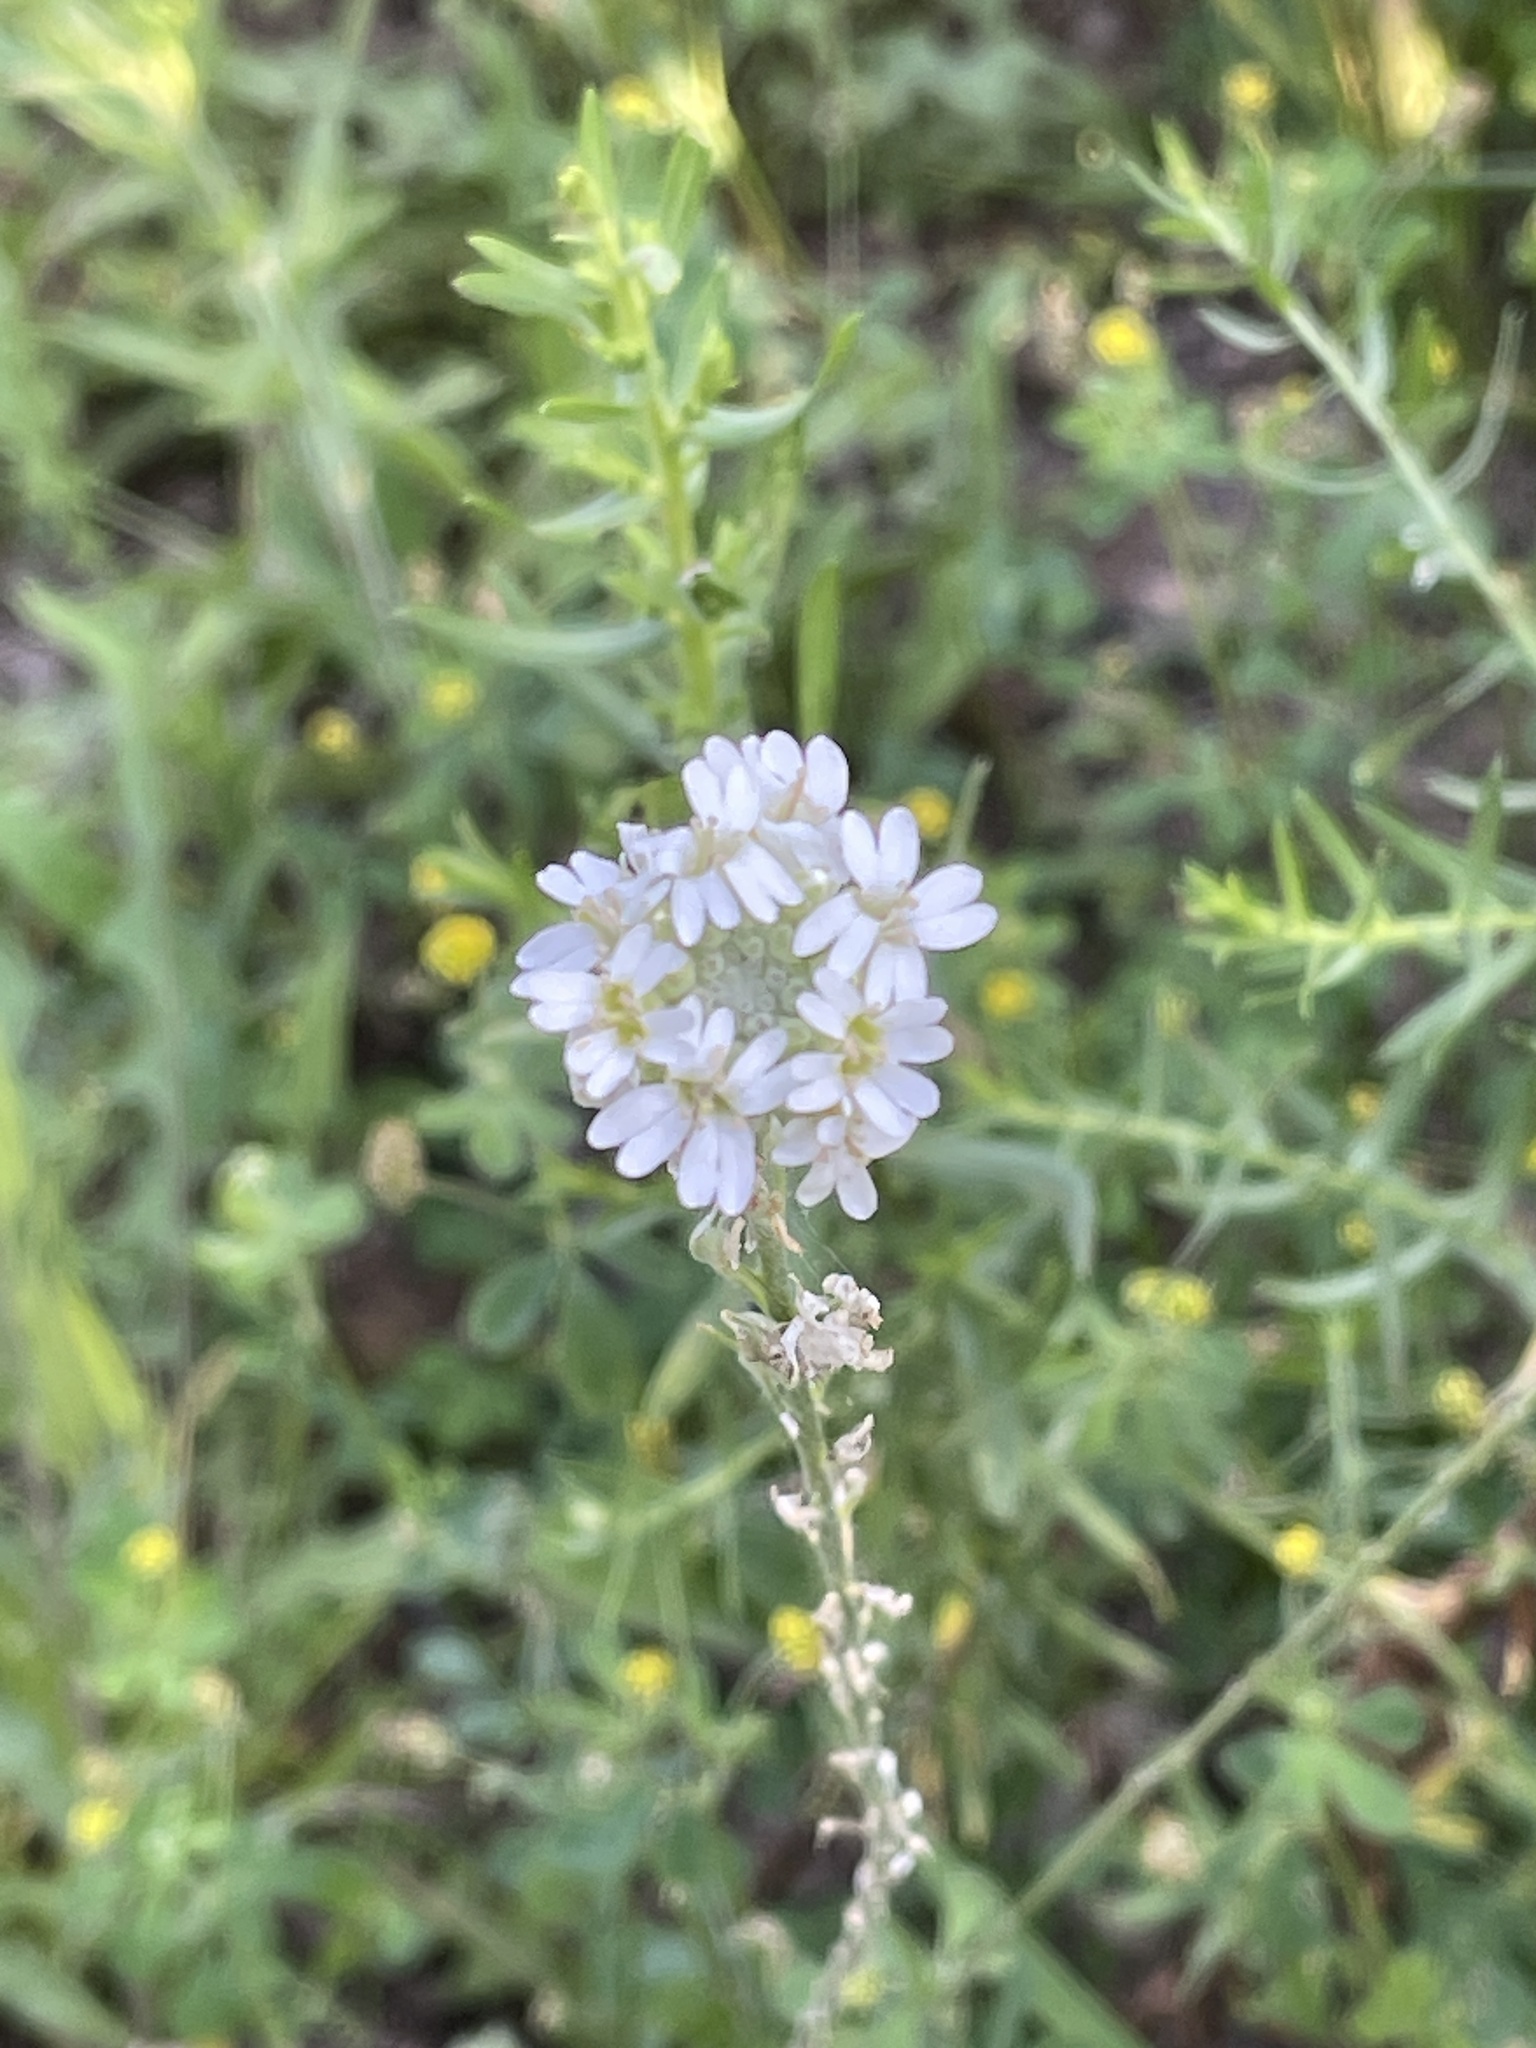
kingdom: Plantae
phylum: Tracheophyta
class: Magnoliopsida
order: Brassicales
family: Brassicaceae
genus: Berteroa
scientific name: Berteroa incana
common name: Hoary alison
